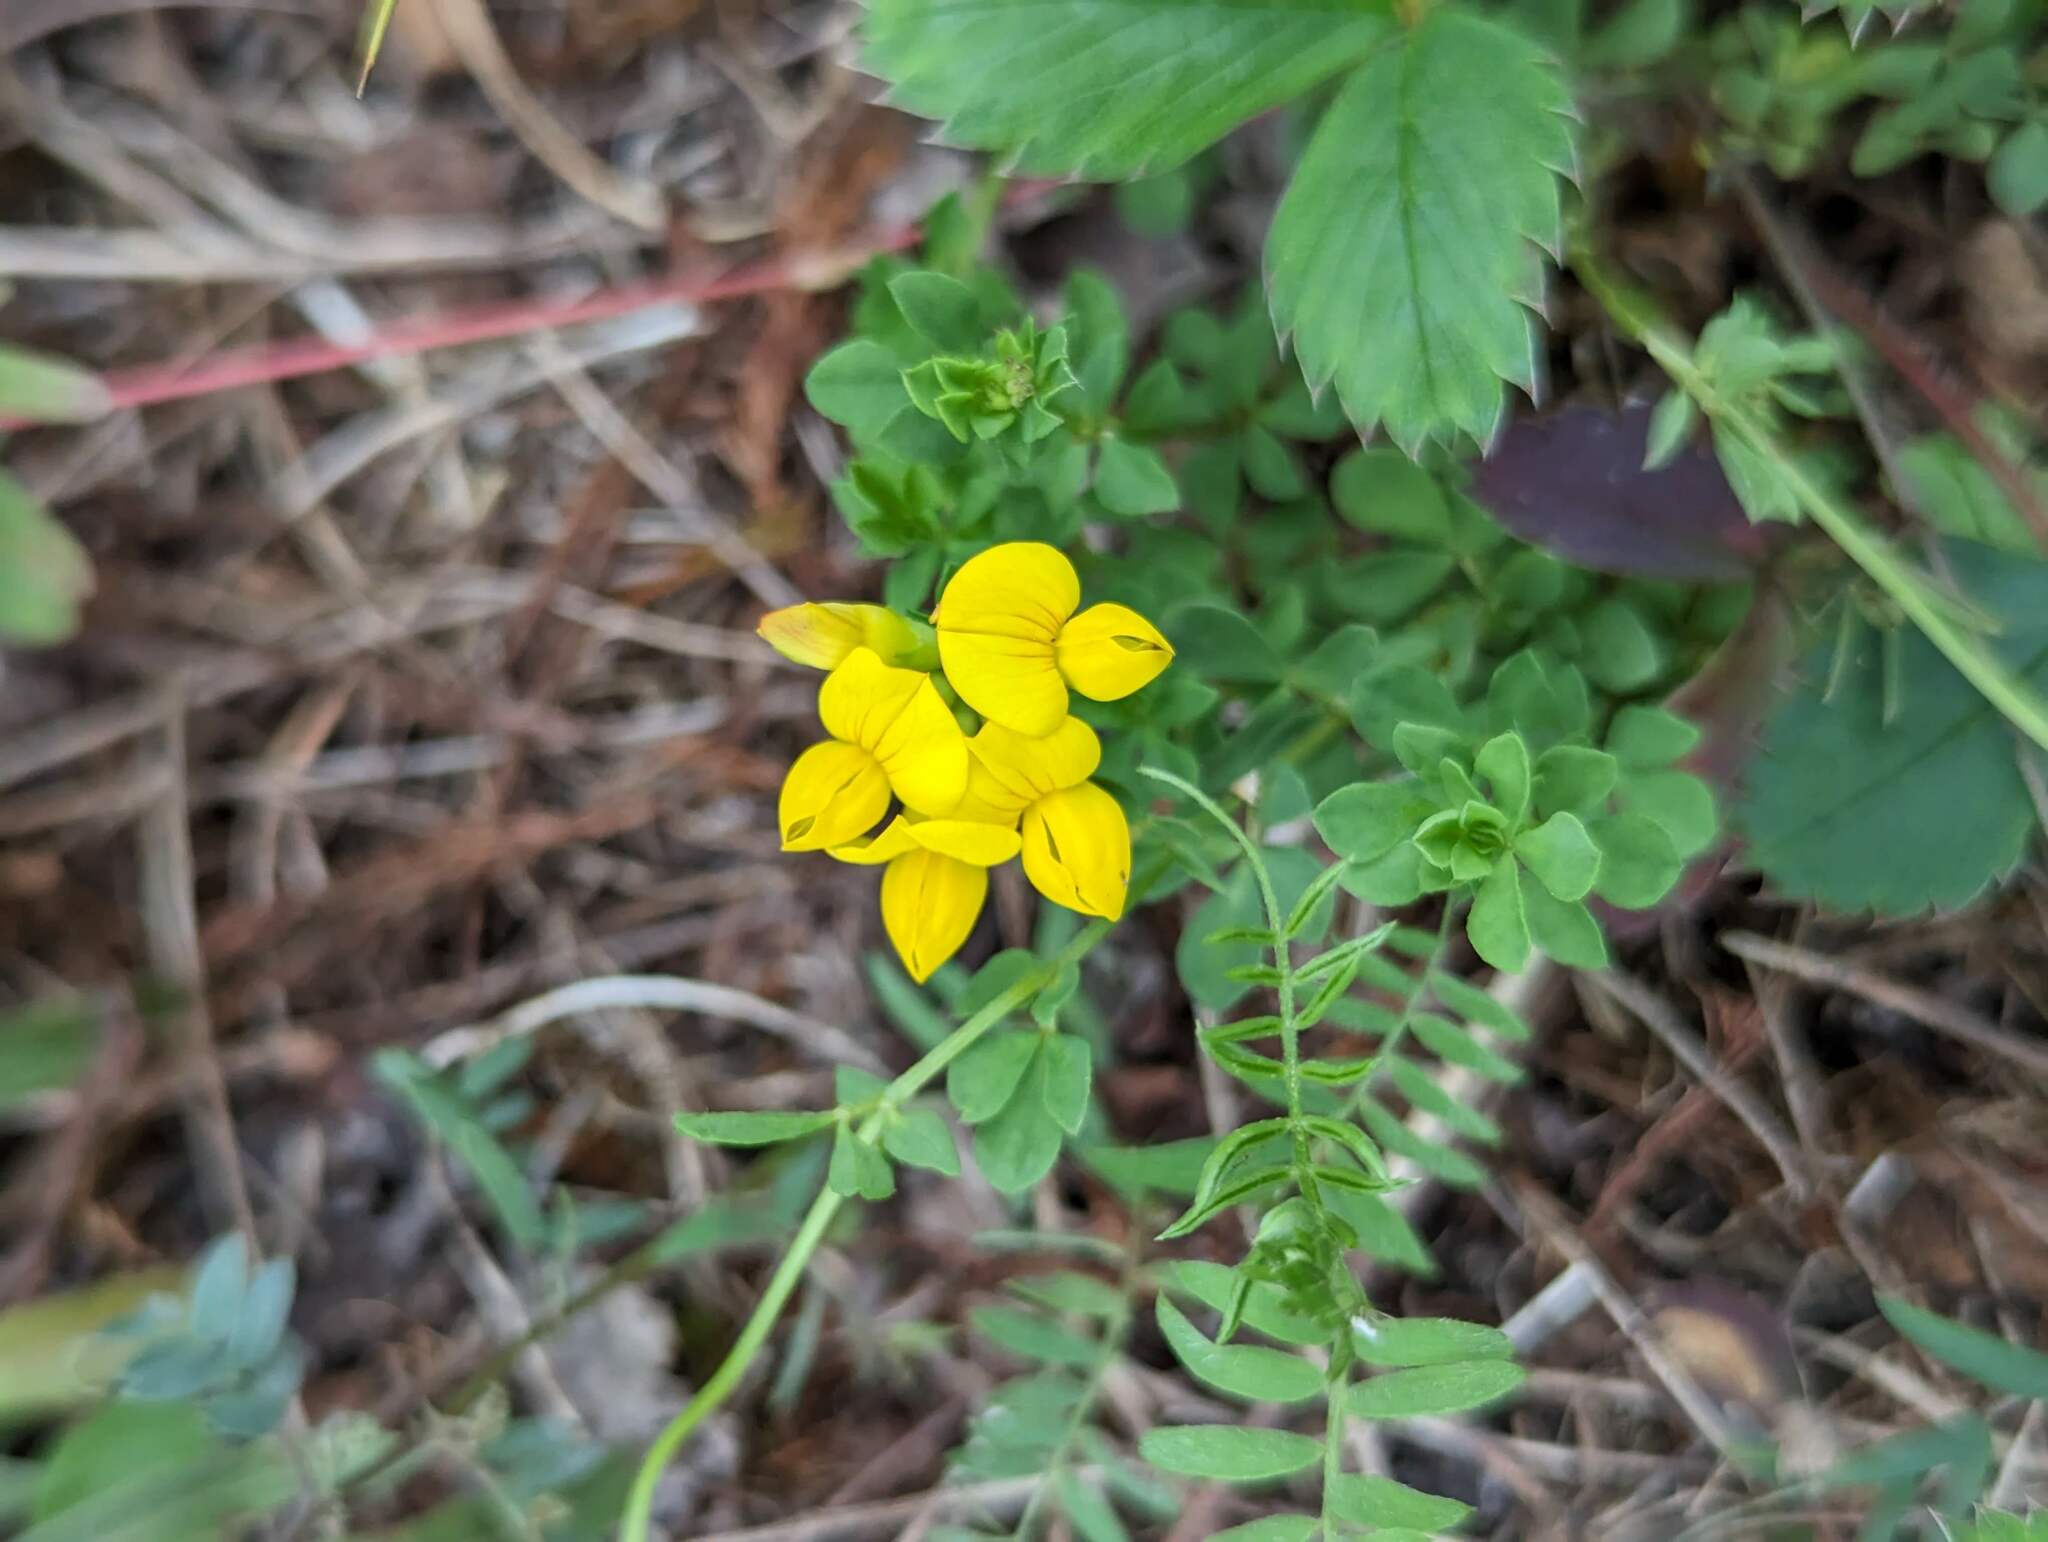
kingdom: Plantae
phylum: Tracheophyta
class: Magnoliopsida
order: Fabales
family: Fabaceae
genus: Lotus
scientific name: Lotus corniculatus
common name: Common bird's-foot-trefoil
